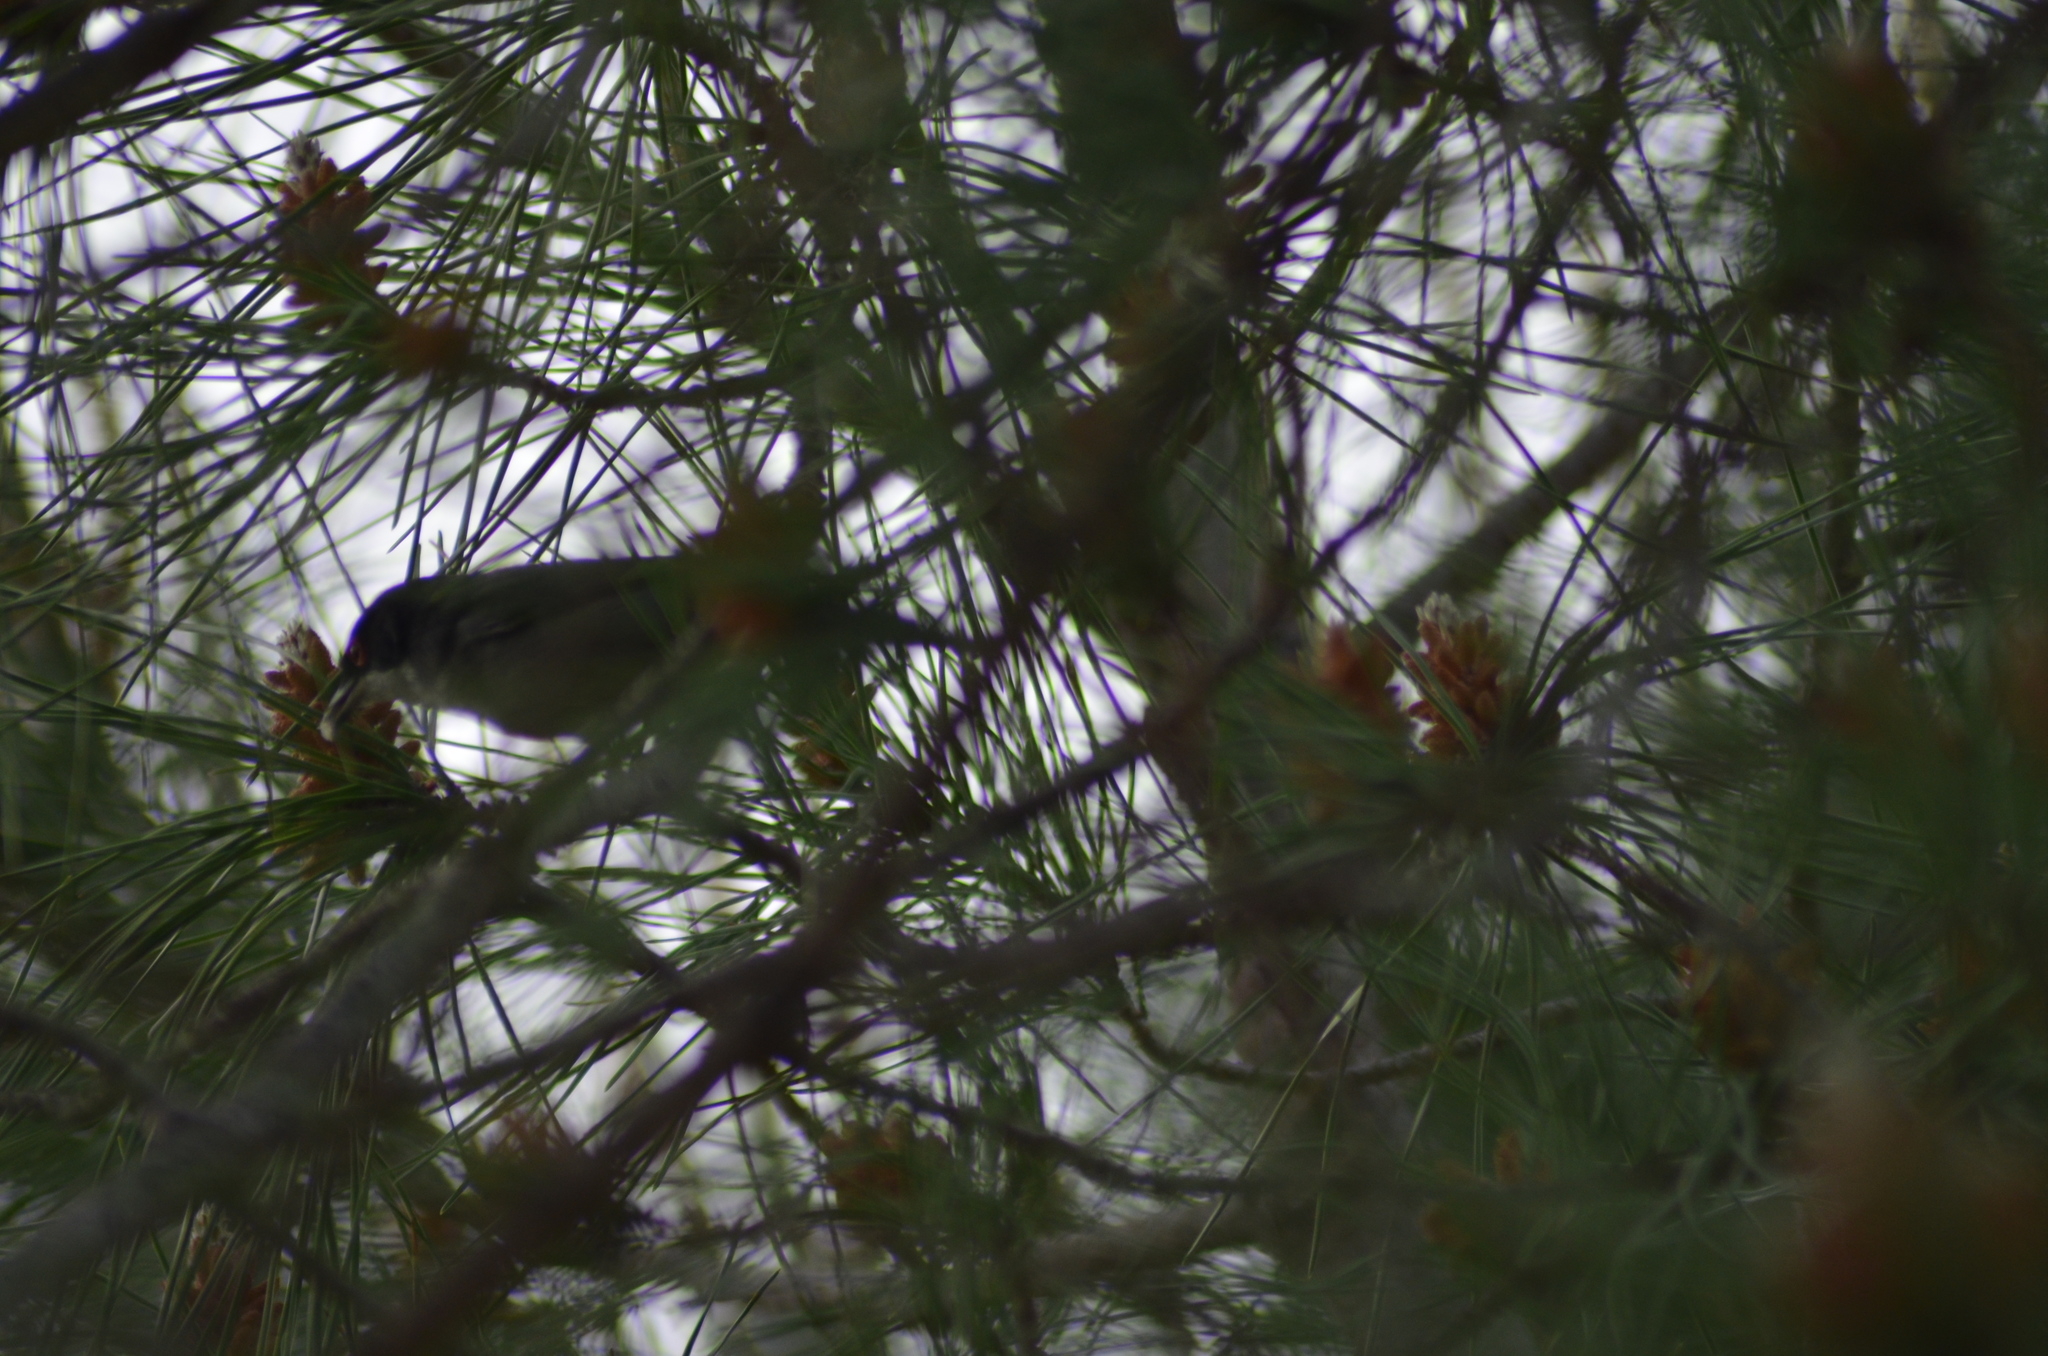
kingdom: Animalia
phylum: Chordata
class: Aves
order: Passeriformes
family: Sylviidae
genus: Curruca
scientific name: Curruca melanocephala
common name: Sardinian warbler
